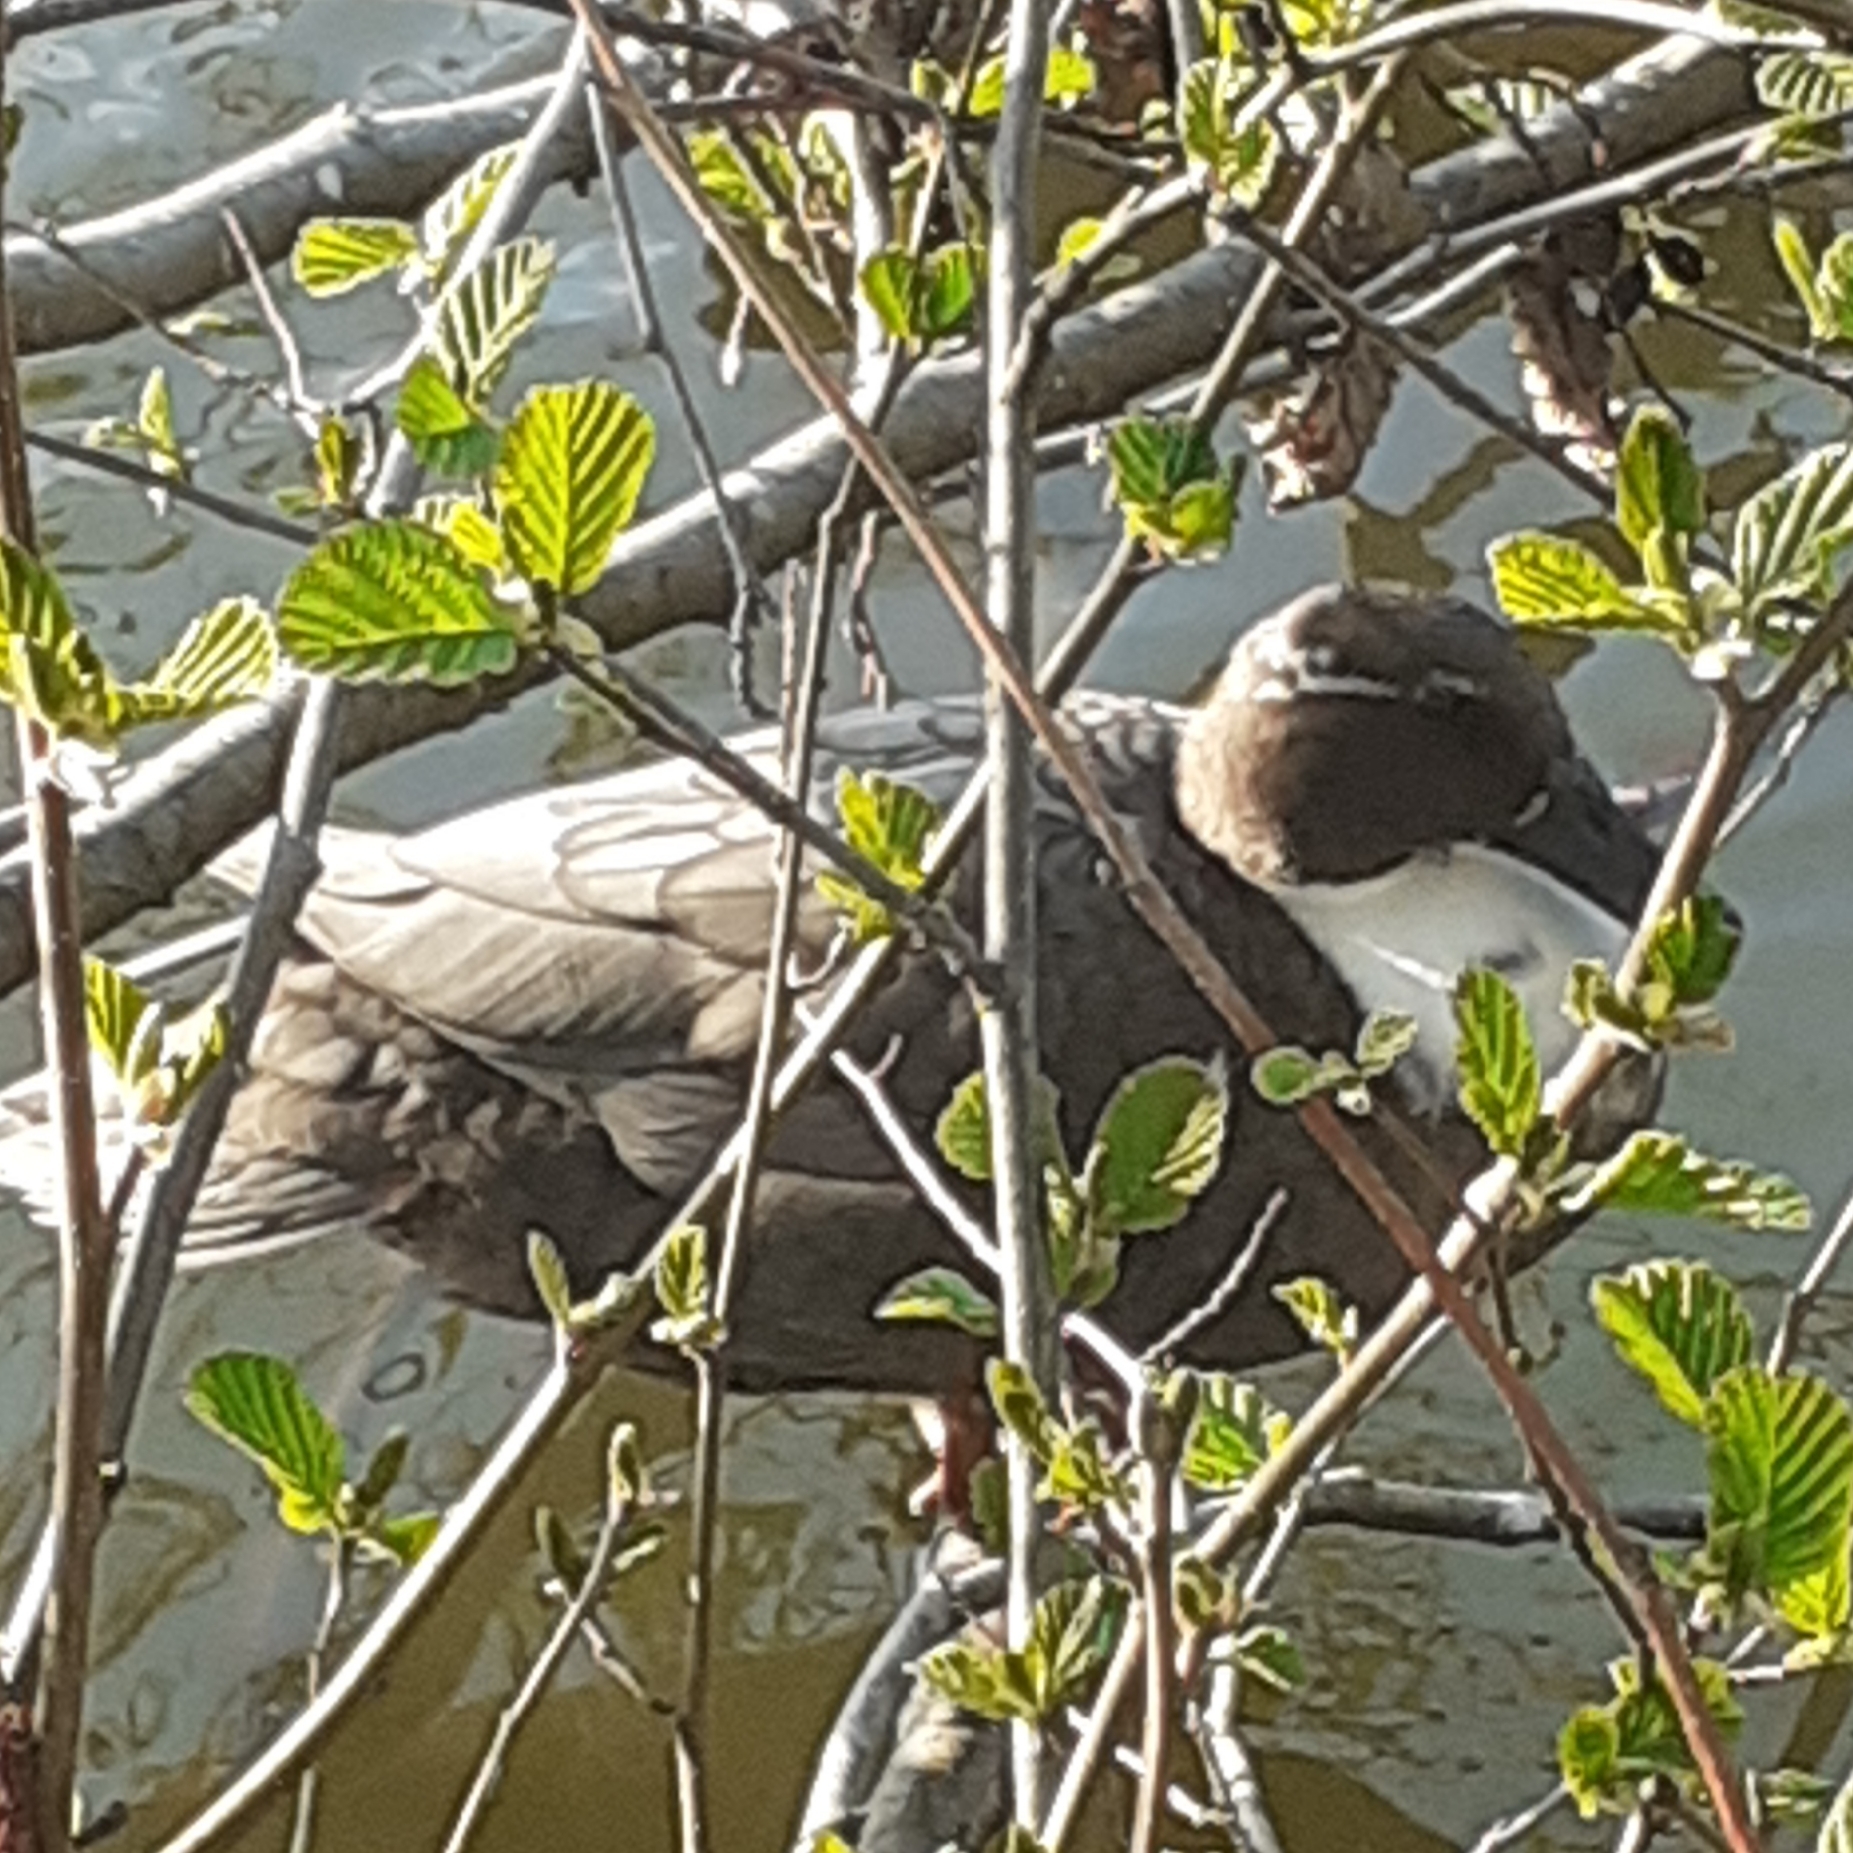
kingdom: Animalia
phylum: Chordata
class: Aves
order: Anseriformes
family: Anatidae
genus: Anas
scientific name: Anas platyrhynchos
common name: Mallard
